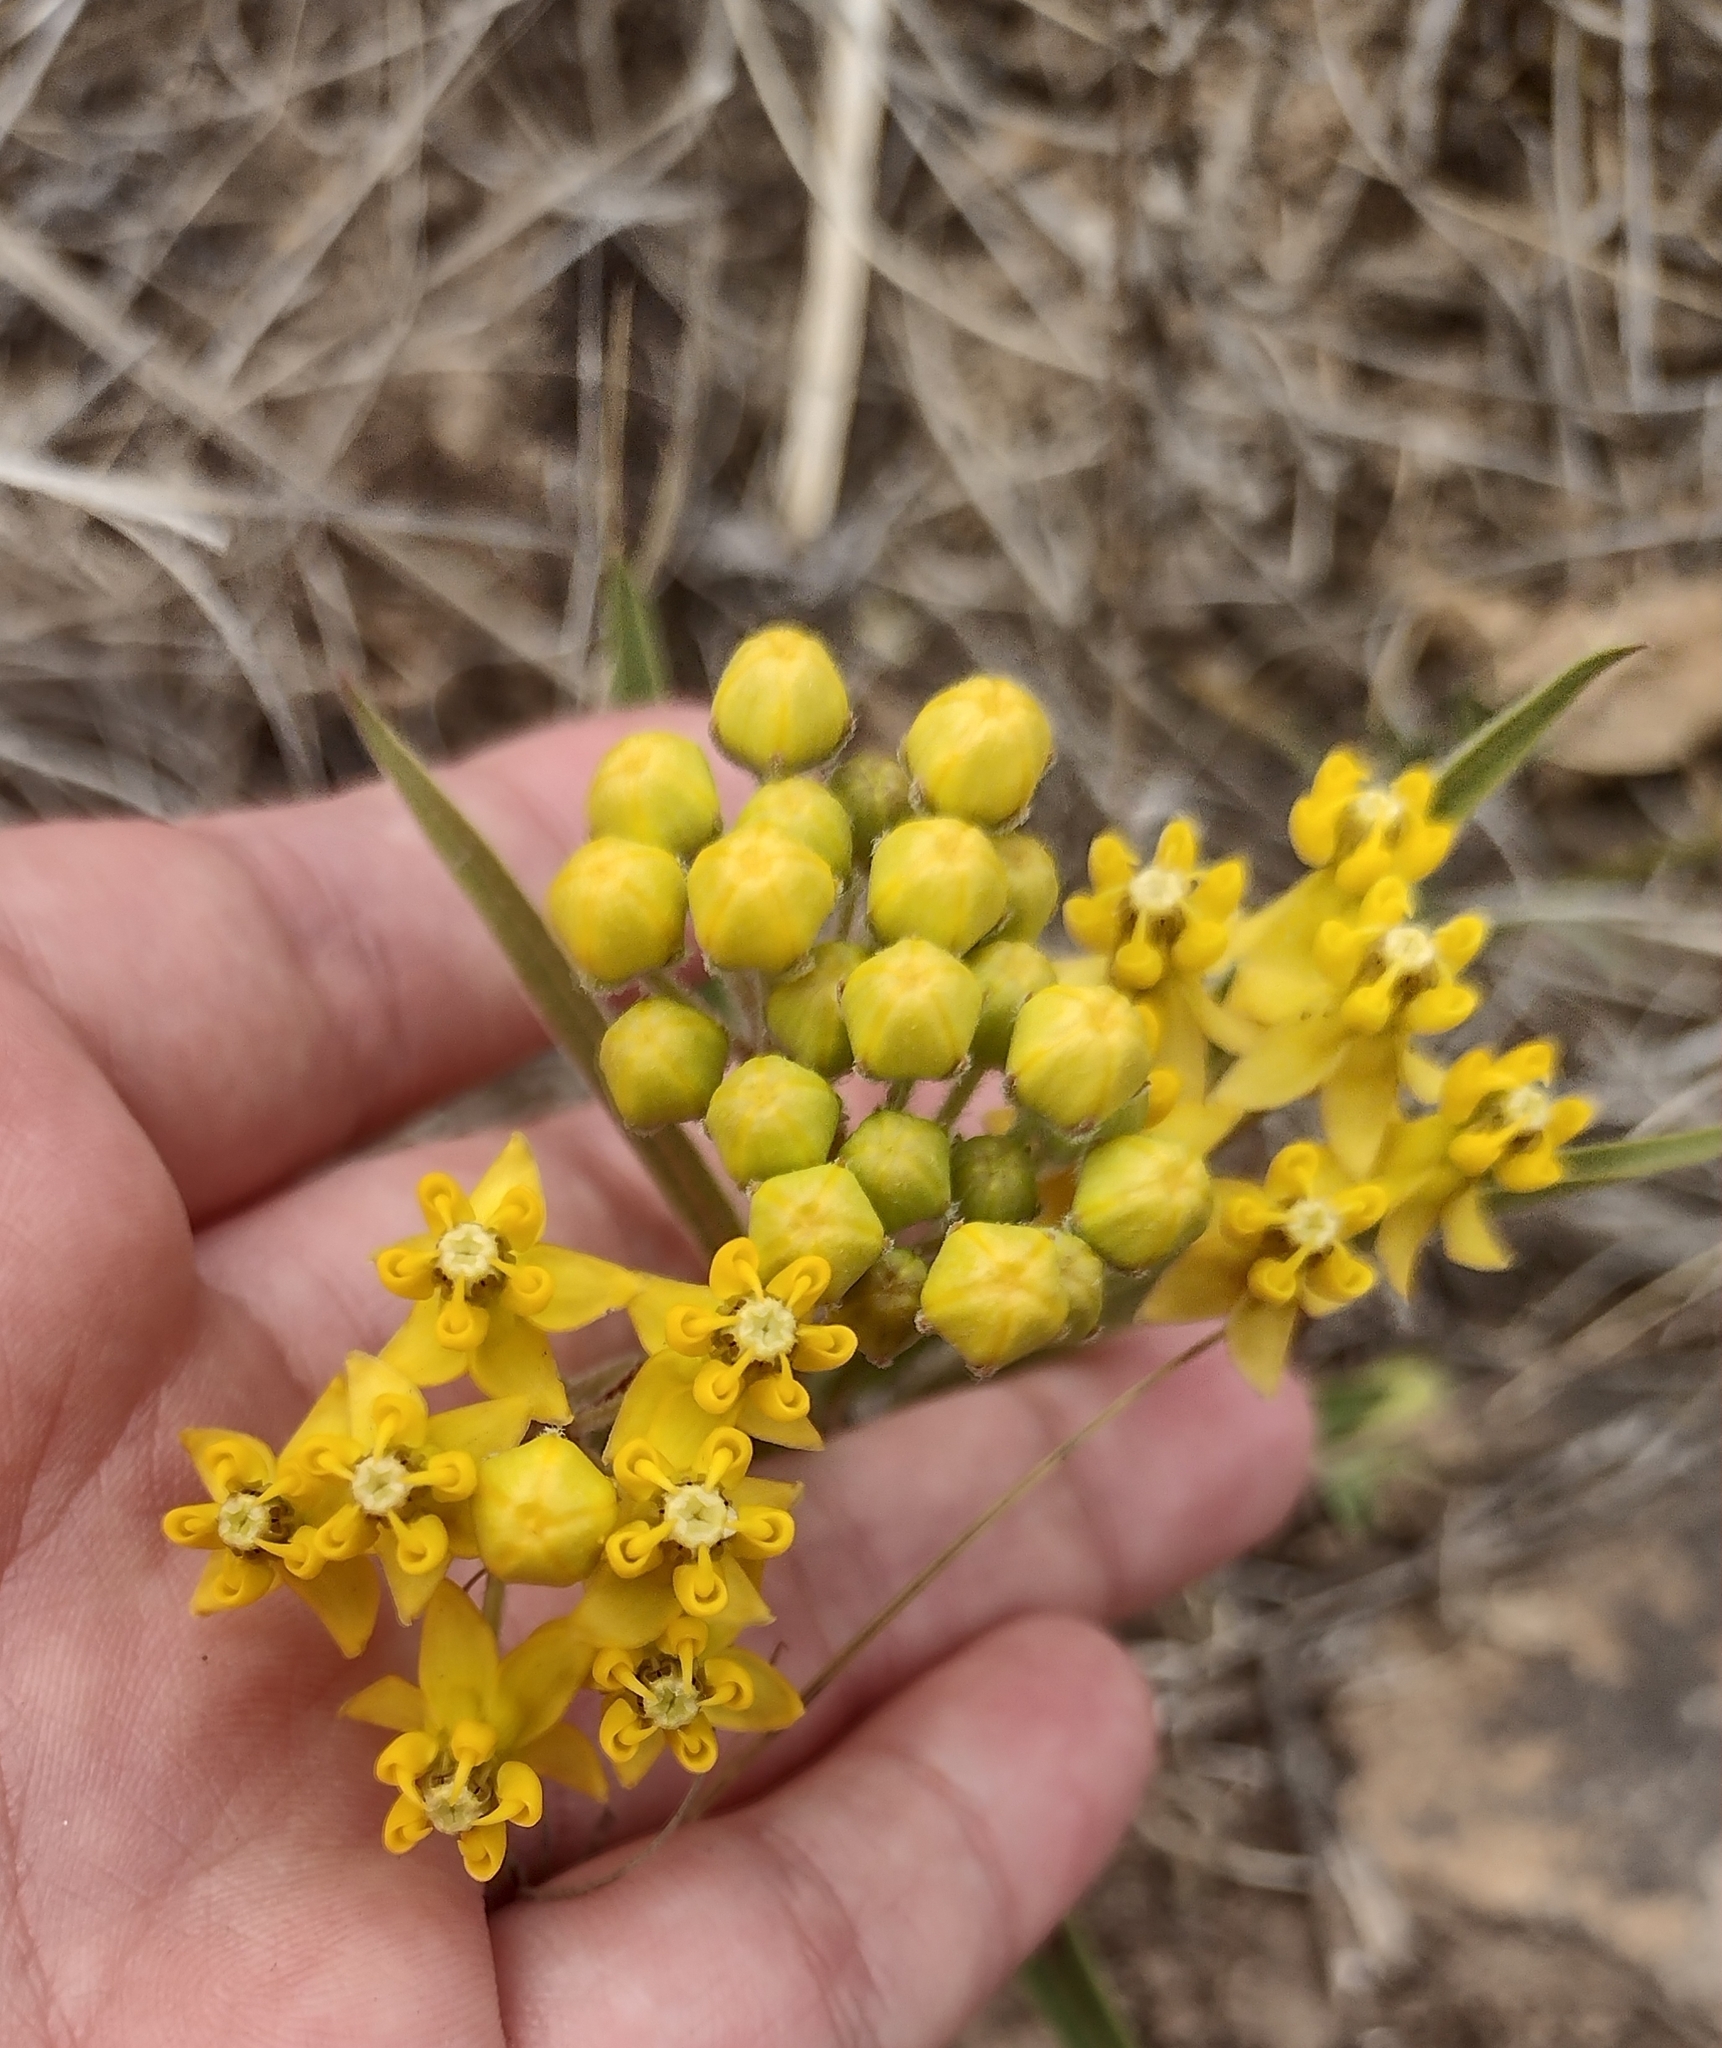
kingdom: Plantae
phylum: Tracheophyta
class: Magnoliopsida
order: Gentianales
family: Apocynaceae
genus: Asclepias
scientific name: Asclepias pilgeriana
